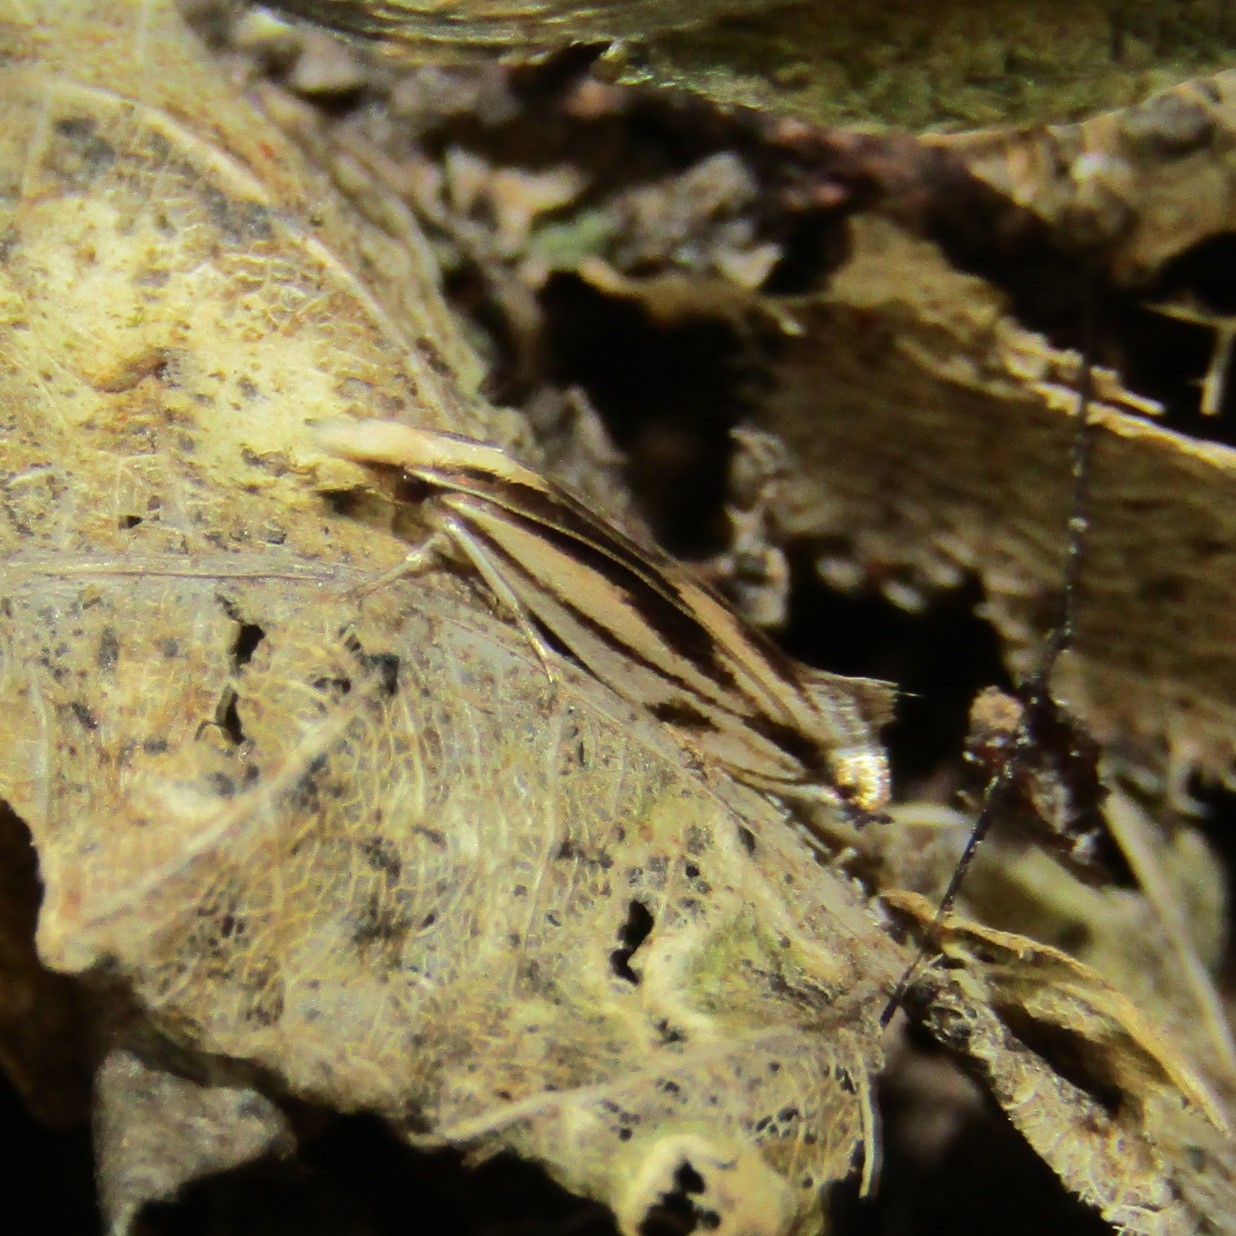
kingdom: Animalia
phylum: Arthropoda
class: Insecta
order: Lepidoptera
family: Tineidae
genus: Erechthias
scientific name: Erechthias chasmatias
